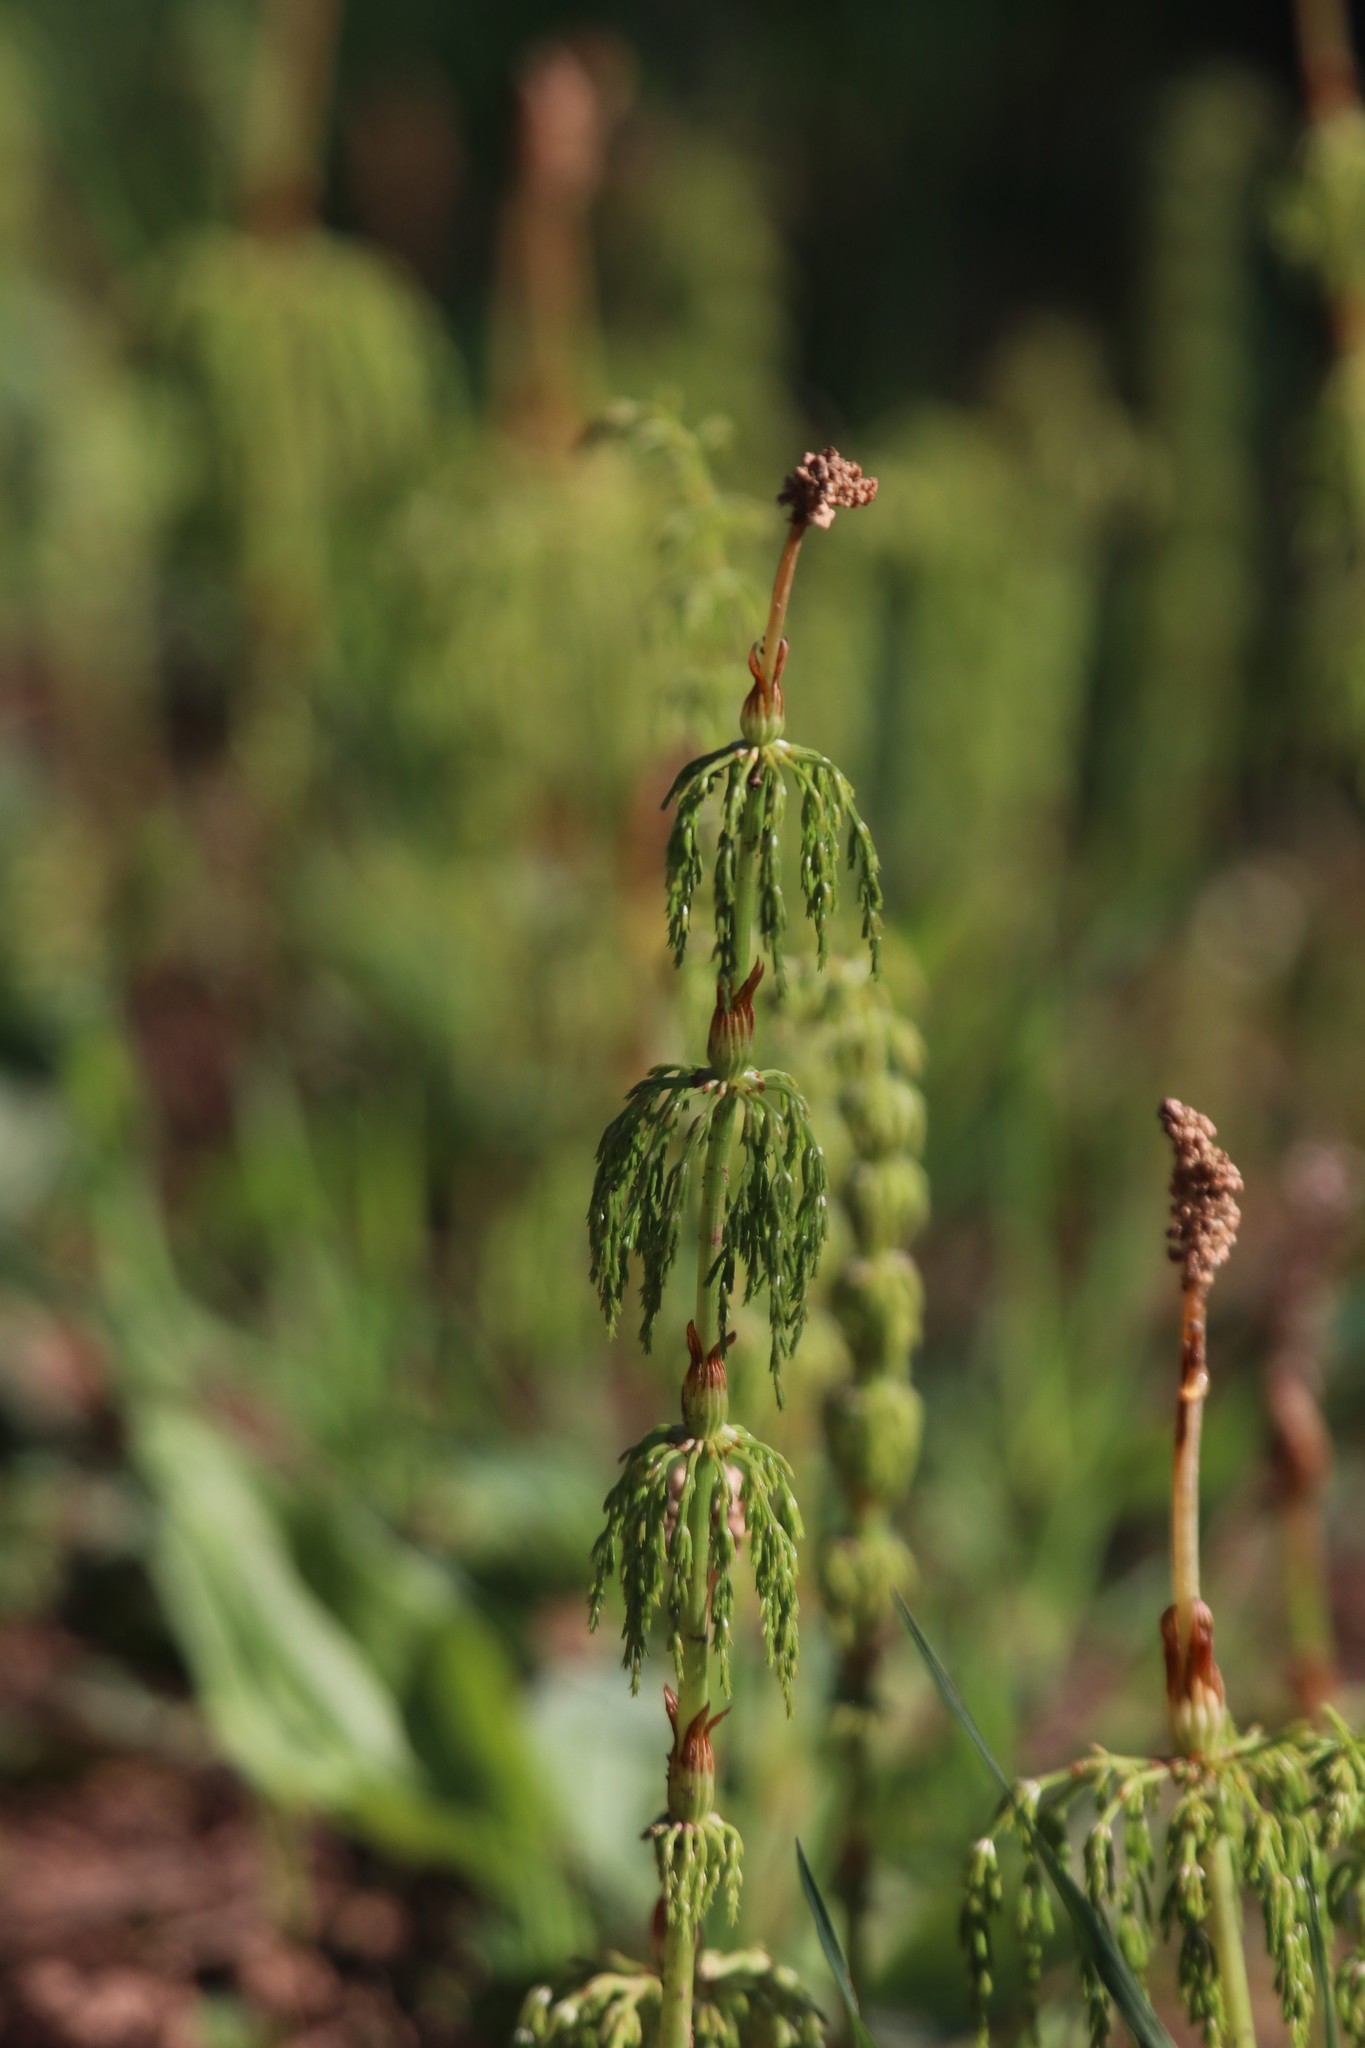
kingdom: Plantae
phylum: Tracheophyta
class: Polypodiopsida
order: Equisetales
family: Equisetaceae
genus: Equisetum
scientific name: Equisetum sylvaticum
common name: Wood horsetail
